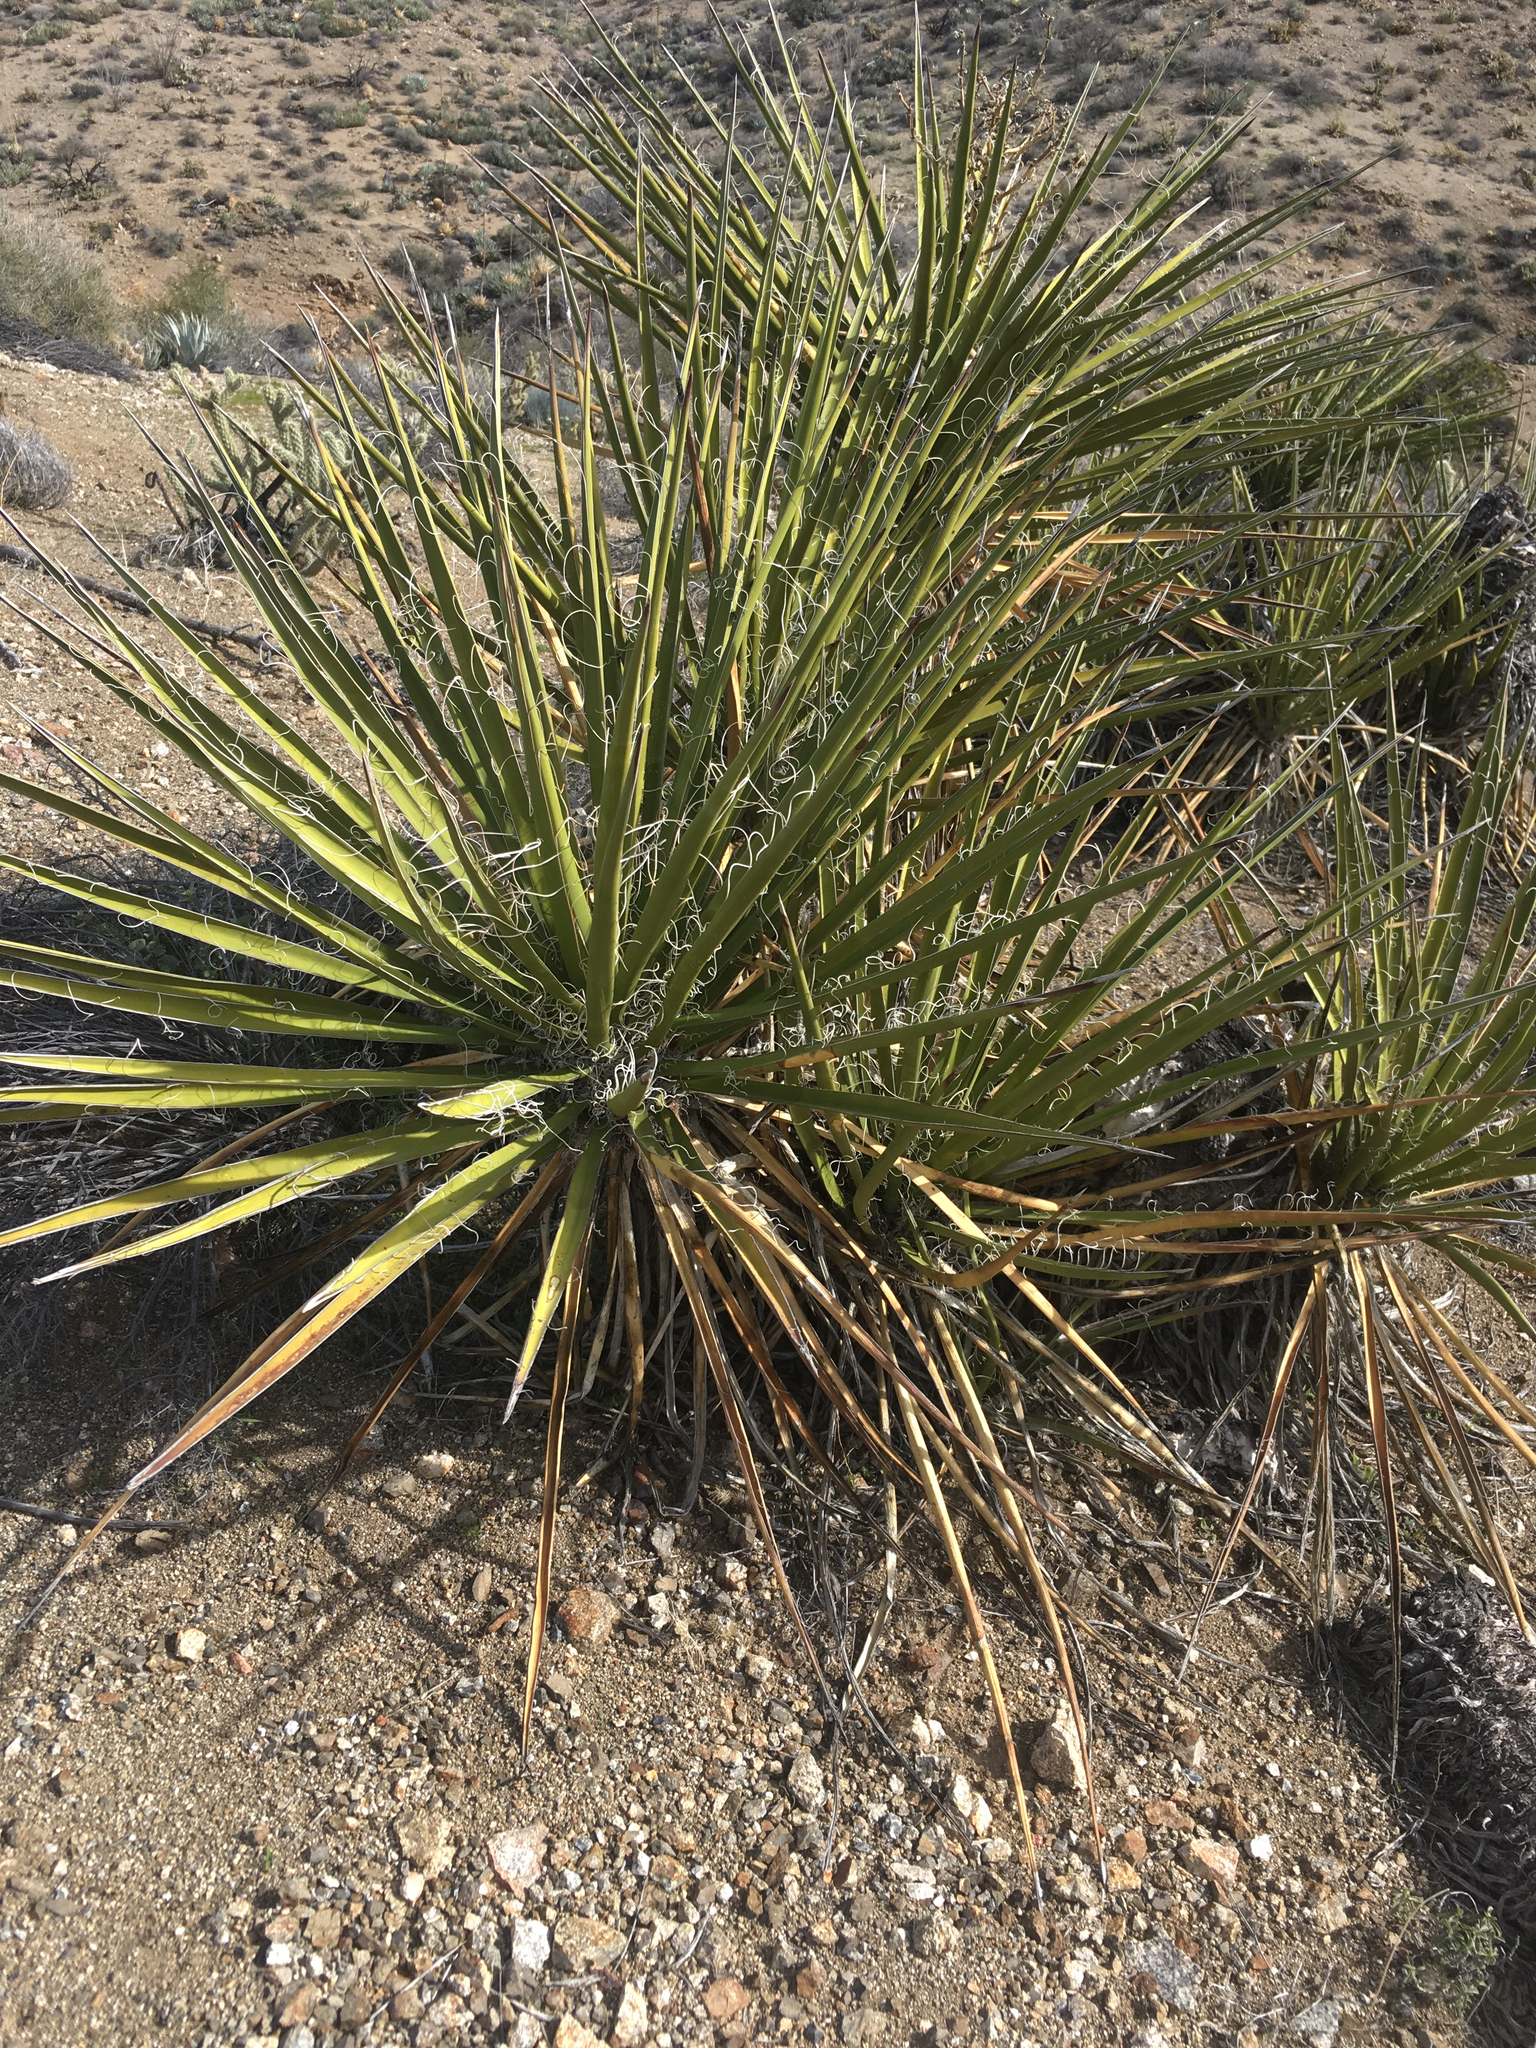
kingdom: Plantae
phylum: Tracheophyta
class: Liliopsida
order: Asparagales
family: Asparagaceae
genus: Yucca
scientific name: Yucca schidigera
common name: Mojave yucca
